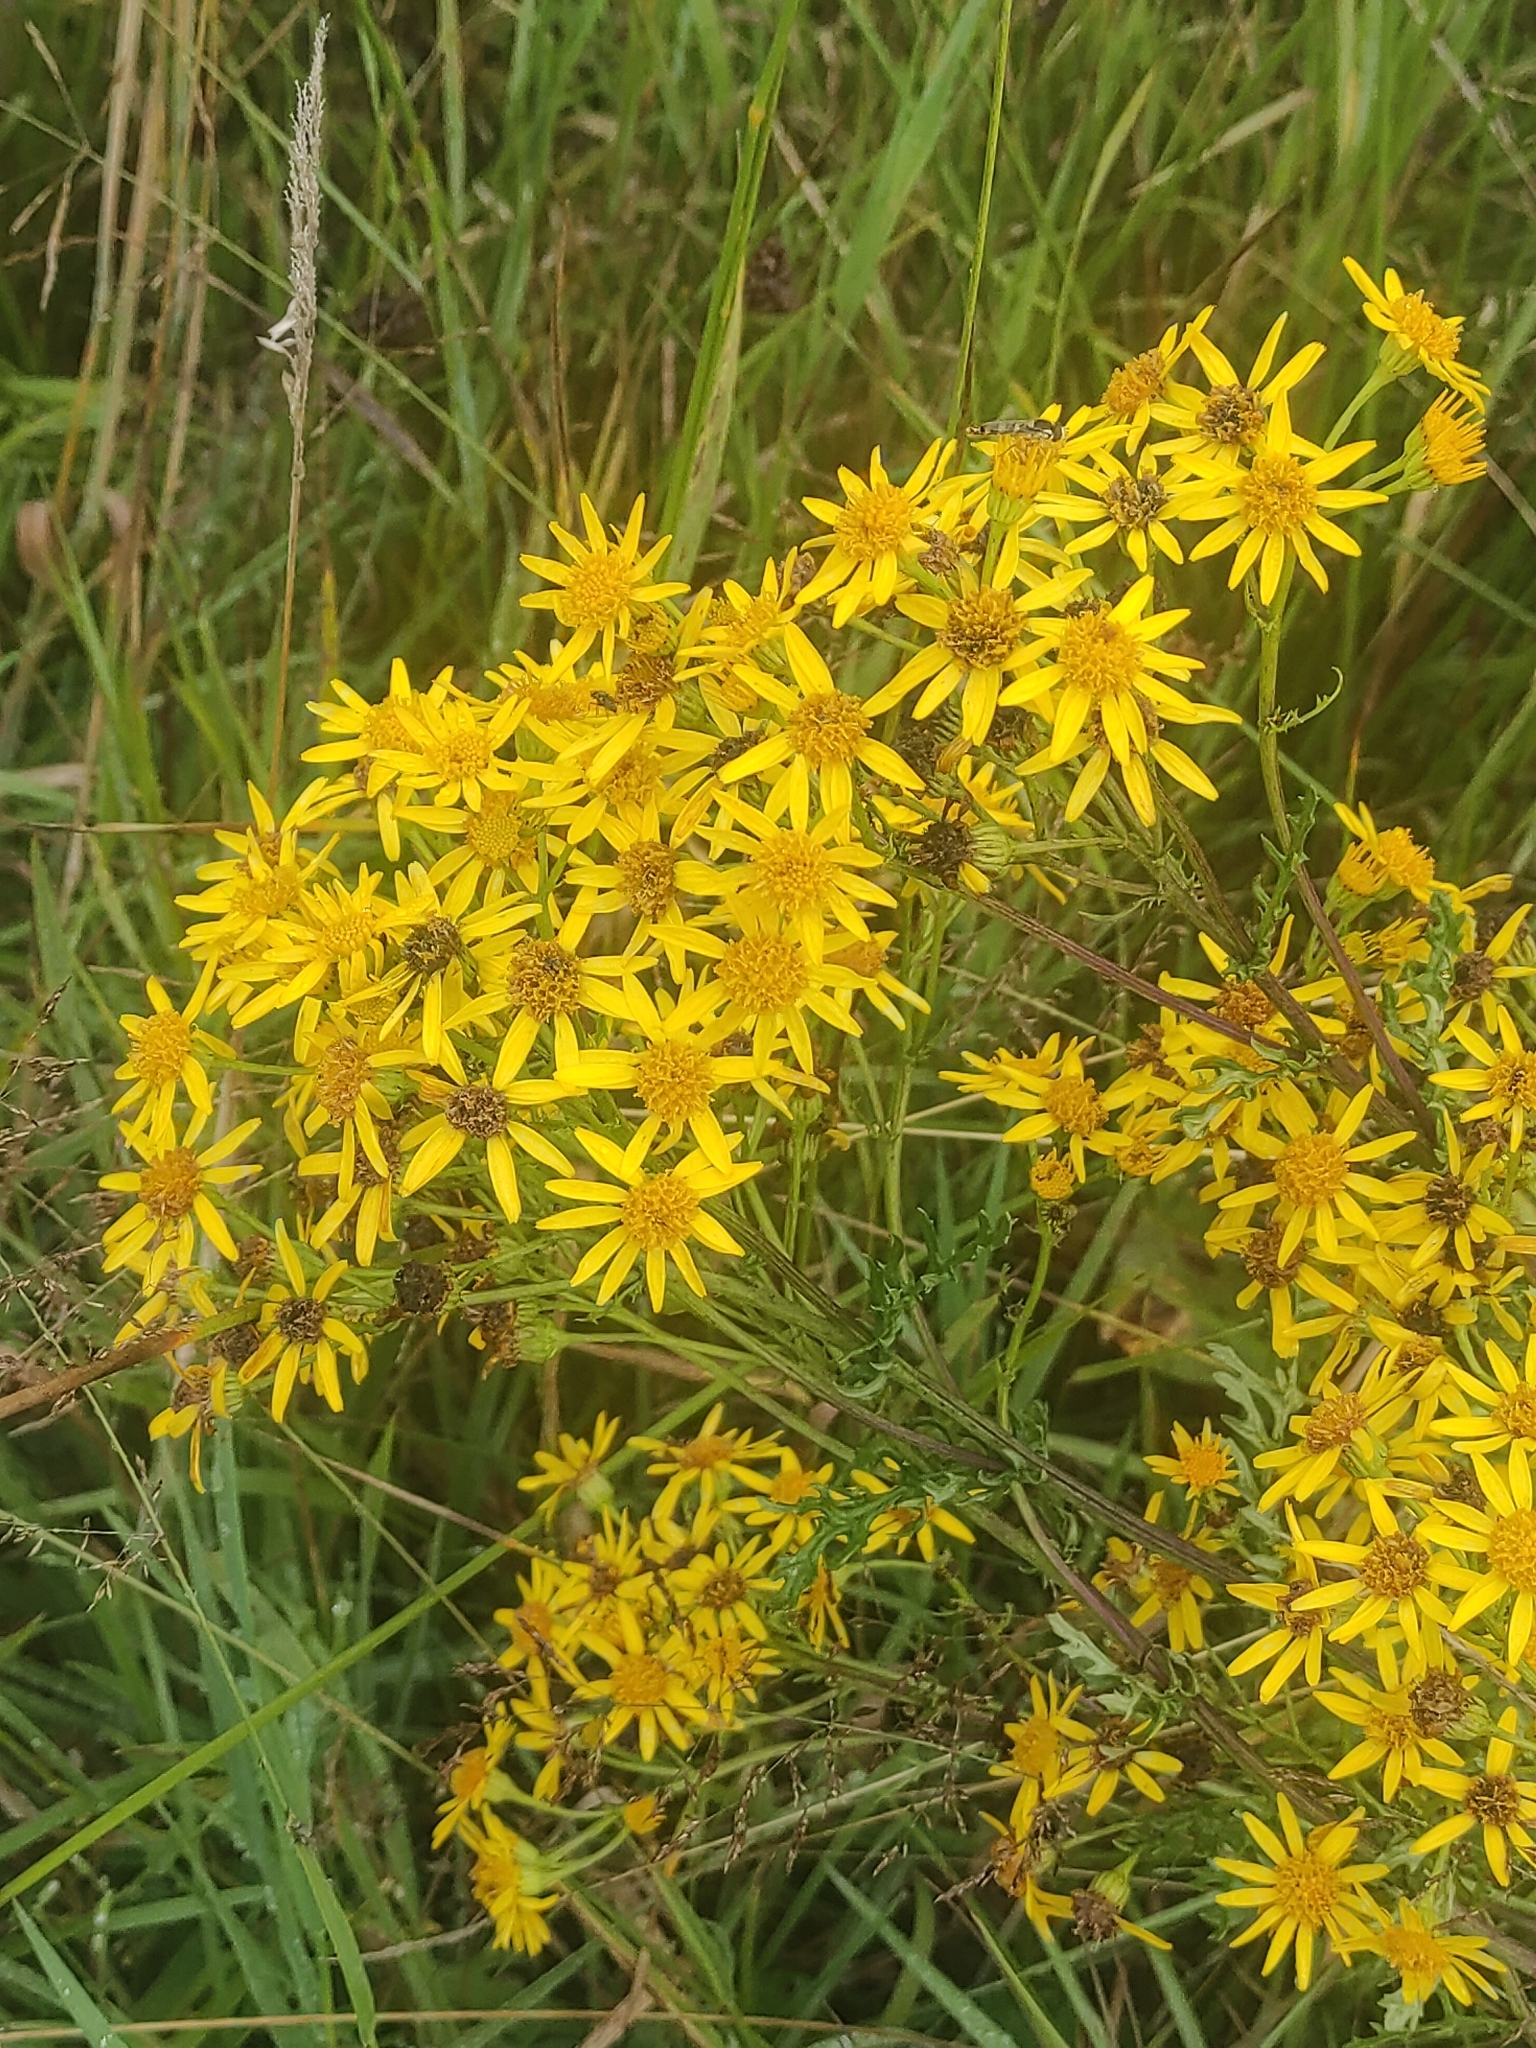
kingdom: Plantae
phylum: Tracheophyta
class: Magnoliopsida
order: Asterales
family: Asteraceae
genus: Jacobaea
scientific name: Jacobaea vulgaris
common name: Stinking willie
